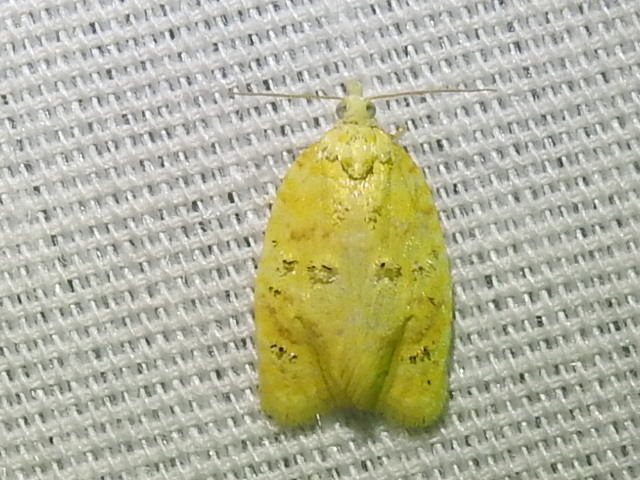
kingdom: Animalia
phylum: Arthropoda
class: Insecta
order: Lepidoptera
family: Tortricidae
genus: Acleris
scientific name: Acleris semipurpurana
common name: Oak leaftier moth
